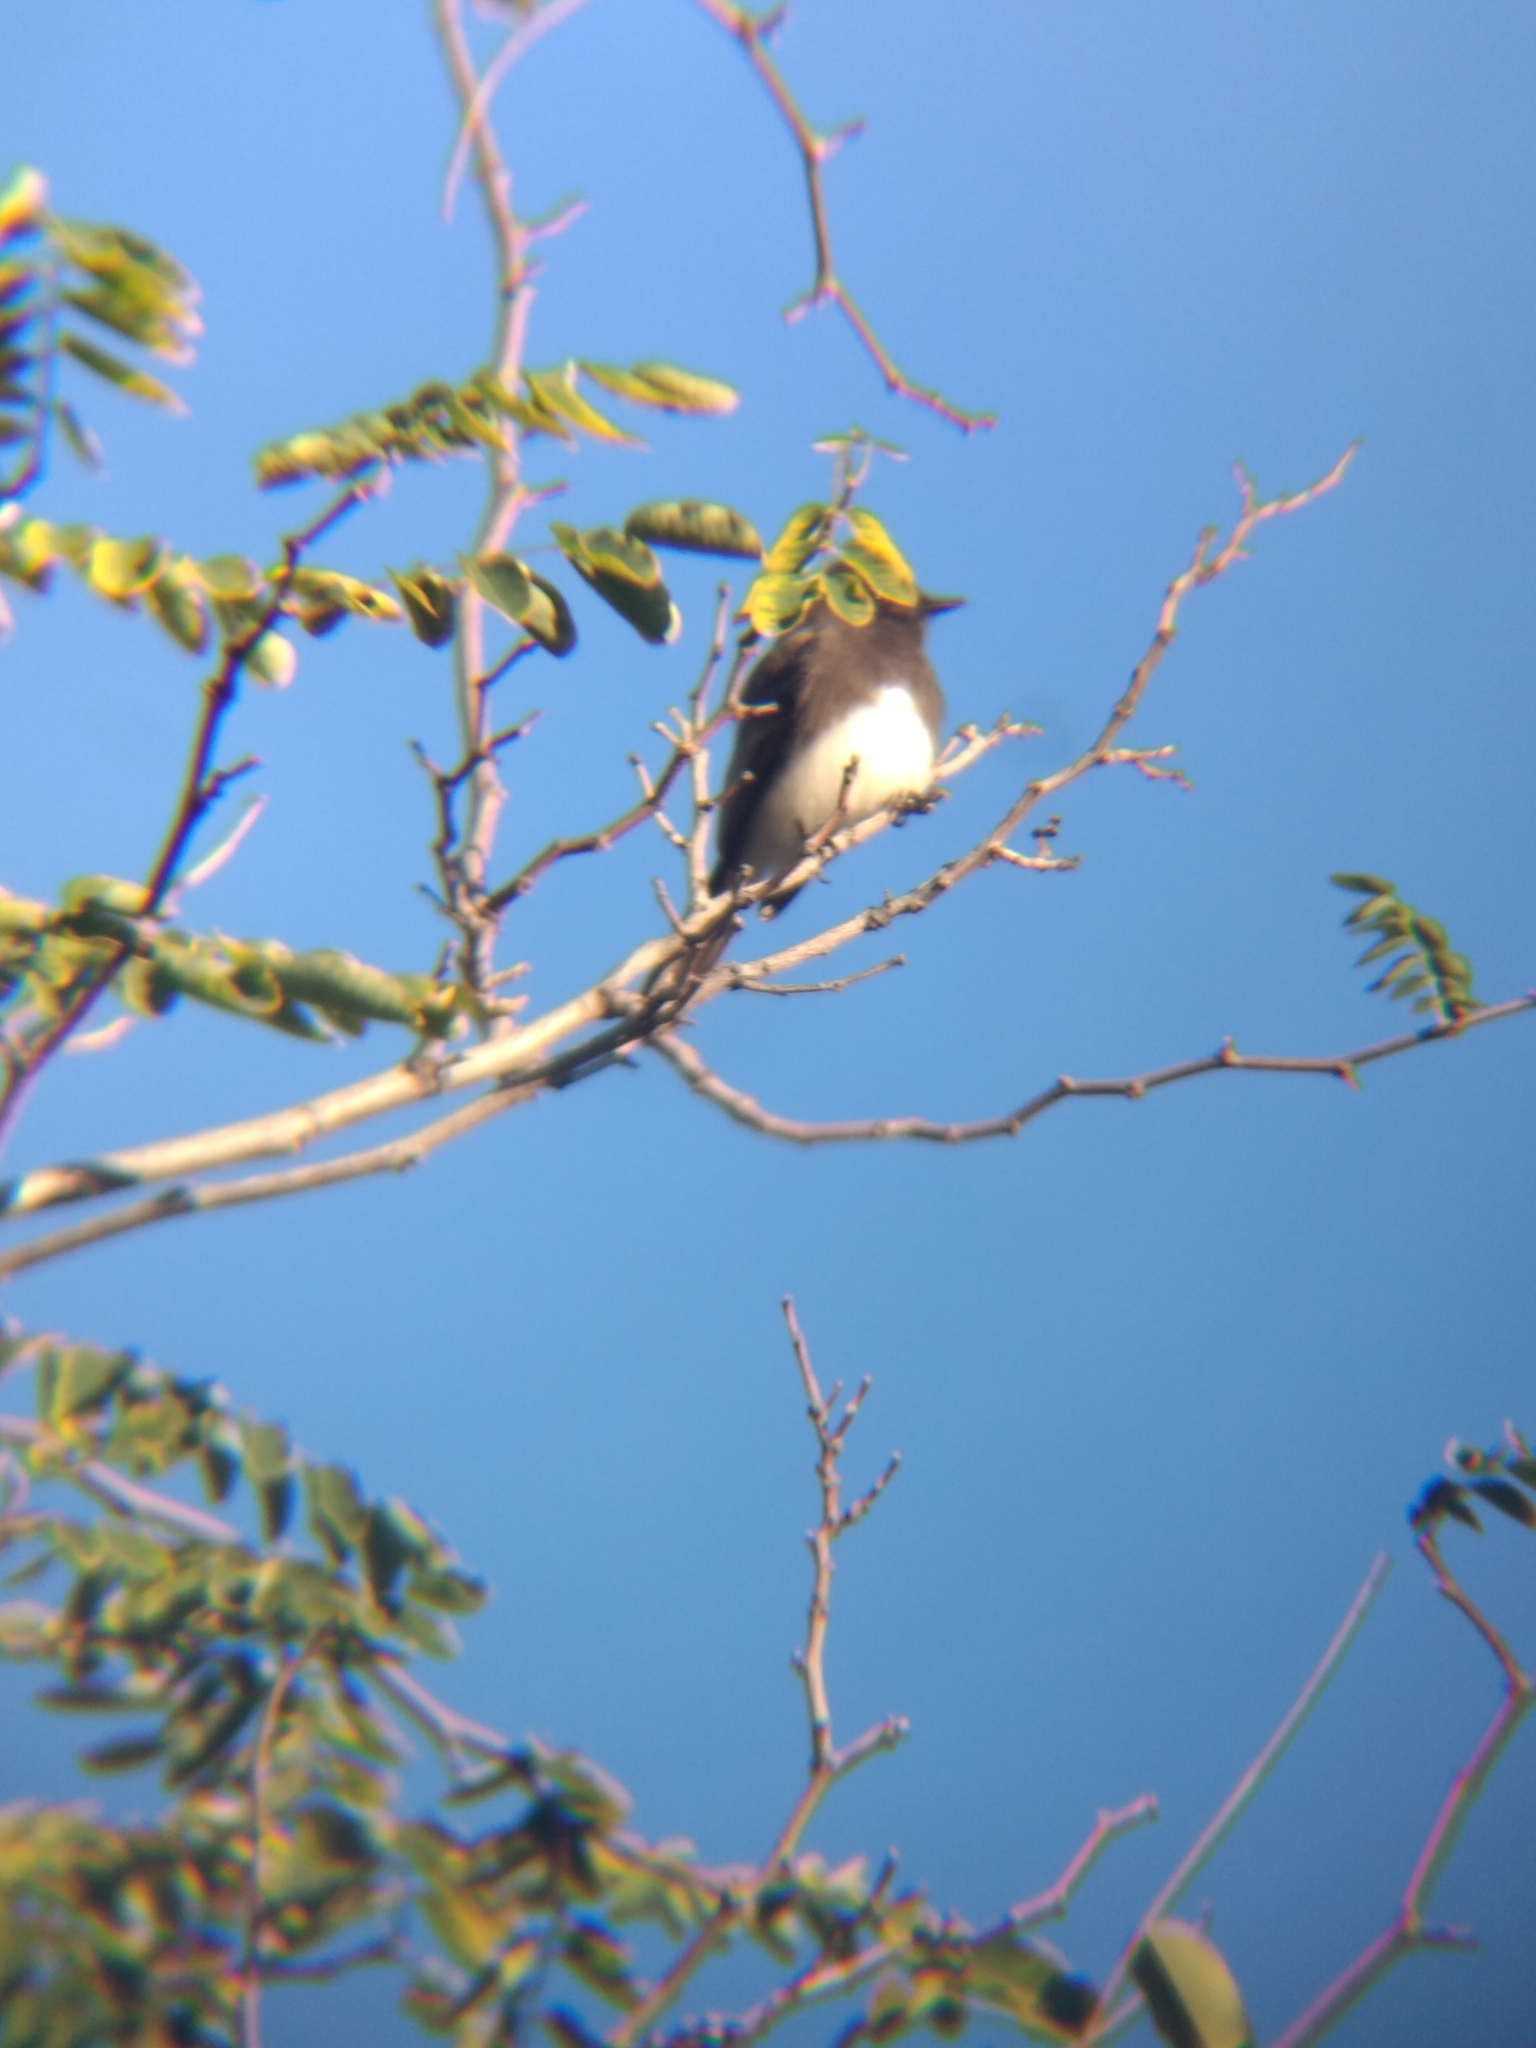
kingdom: Animalia
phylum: Chordata
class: Aves
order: Passeriformes
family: Tyrannidae
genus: Sayornis
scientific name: Sayornis nigricans
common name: Black phoebe
